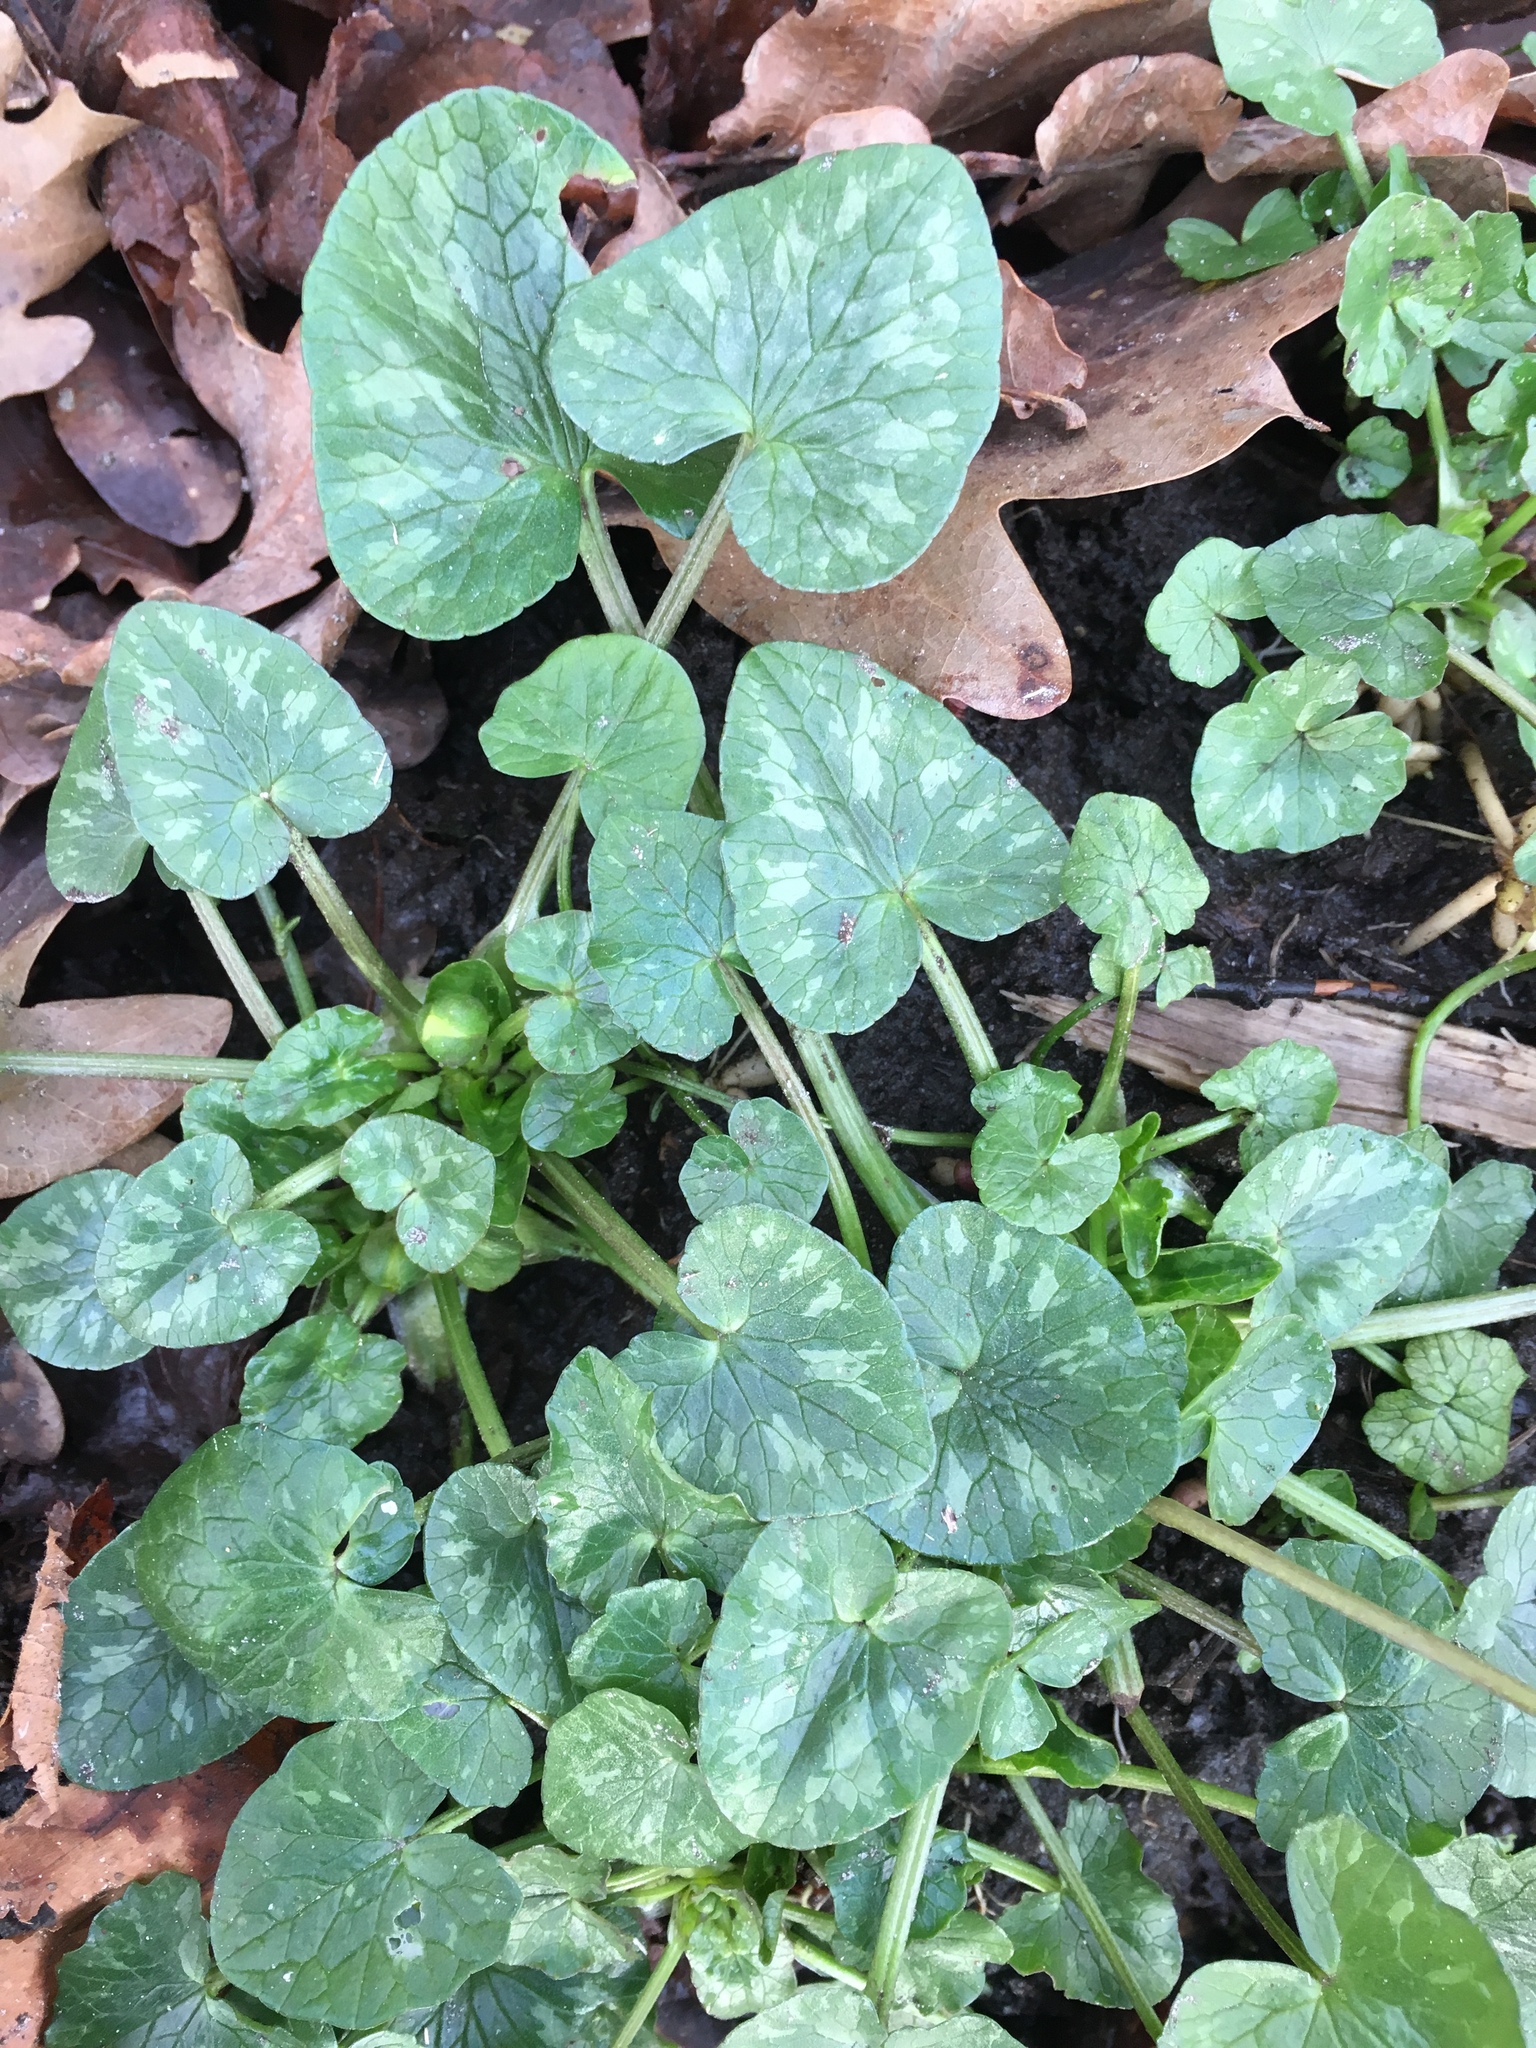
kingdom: Plantae
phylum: Tracheophyta
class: Magnoliopsida
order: Ranunculales
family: Ranunculaceae
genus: Ficaria
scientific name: Ficaria verna
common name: Lesser celandine
